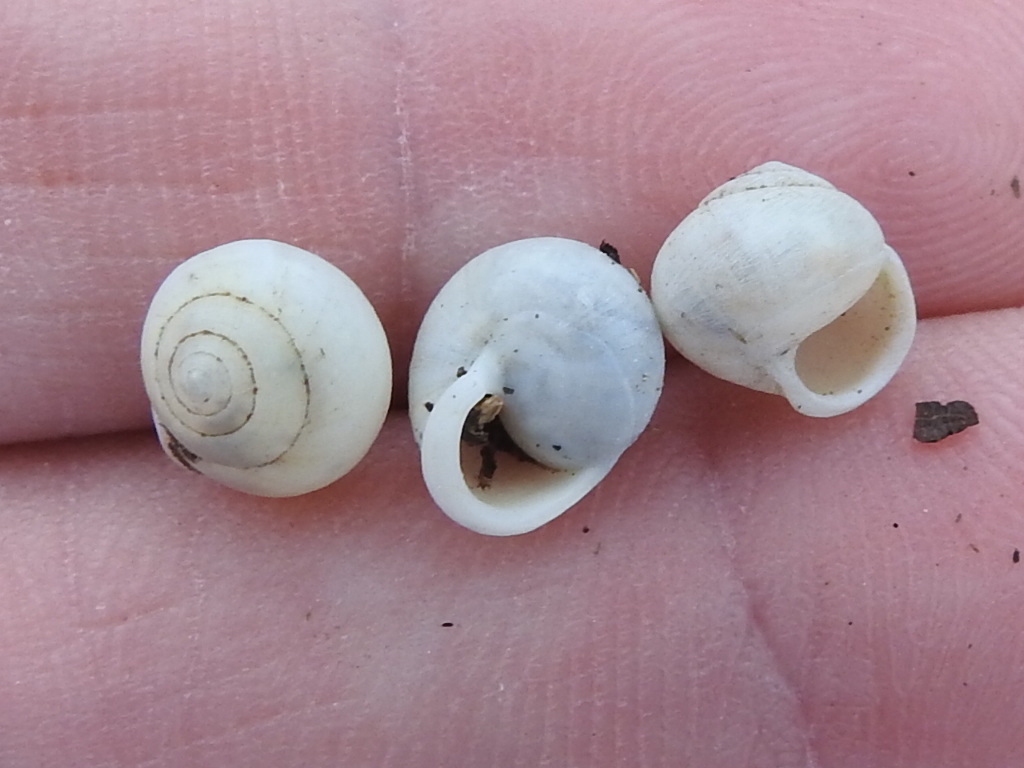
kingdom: Animalia
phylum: Mollusca
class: Gastropoda
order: Cycloneritida
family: Helicinidae
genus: Helicina
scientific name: Helicina orbiculata
